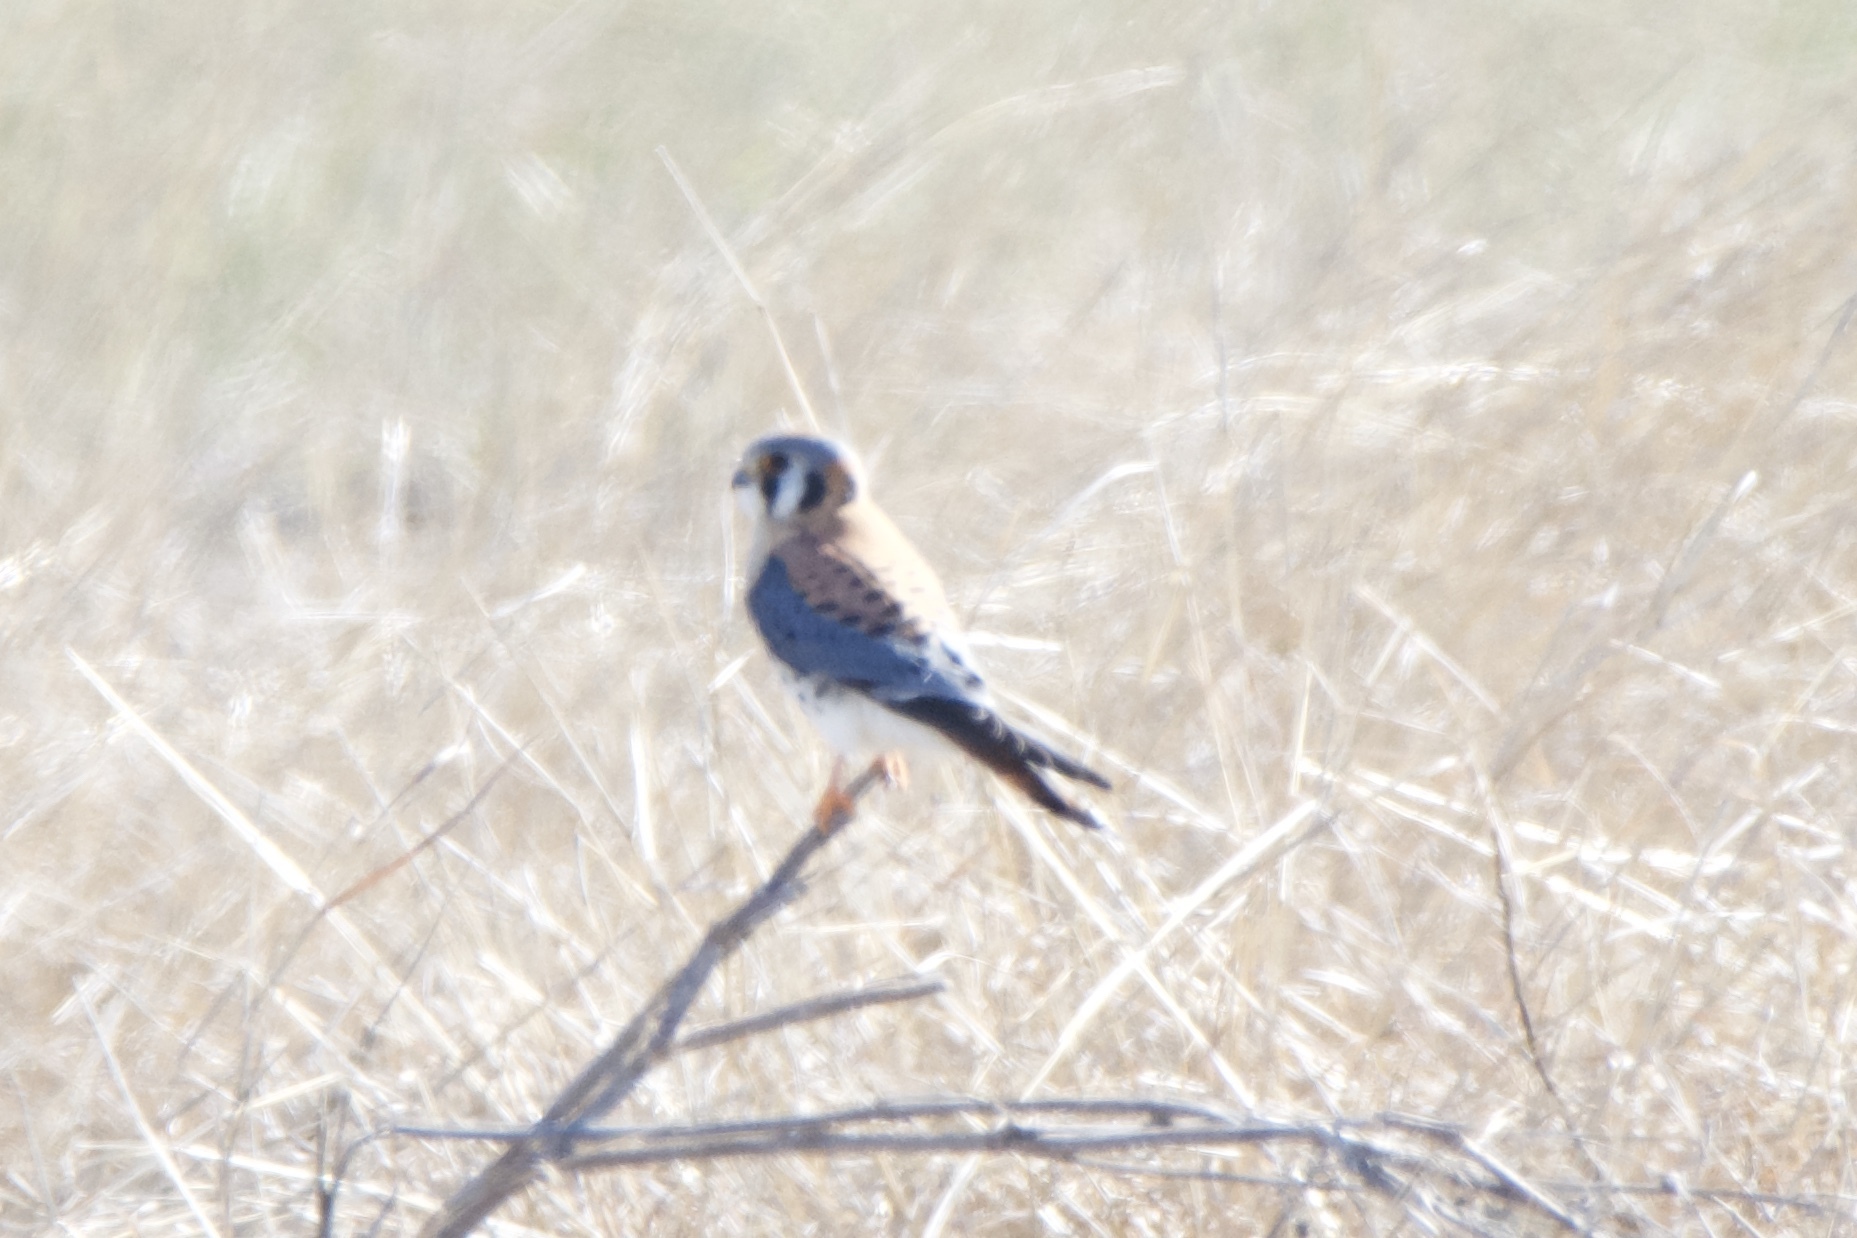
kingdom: Animalia
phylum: Chordata
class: Aves
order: Falconiformes
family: Falconidae
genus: Falco
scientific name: Falco sparverius
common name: American kestrel
